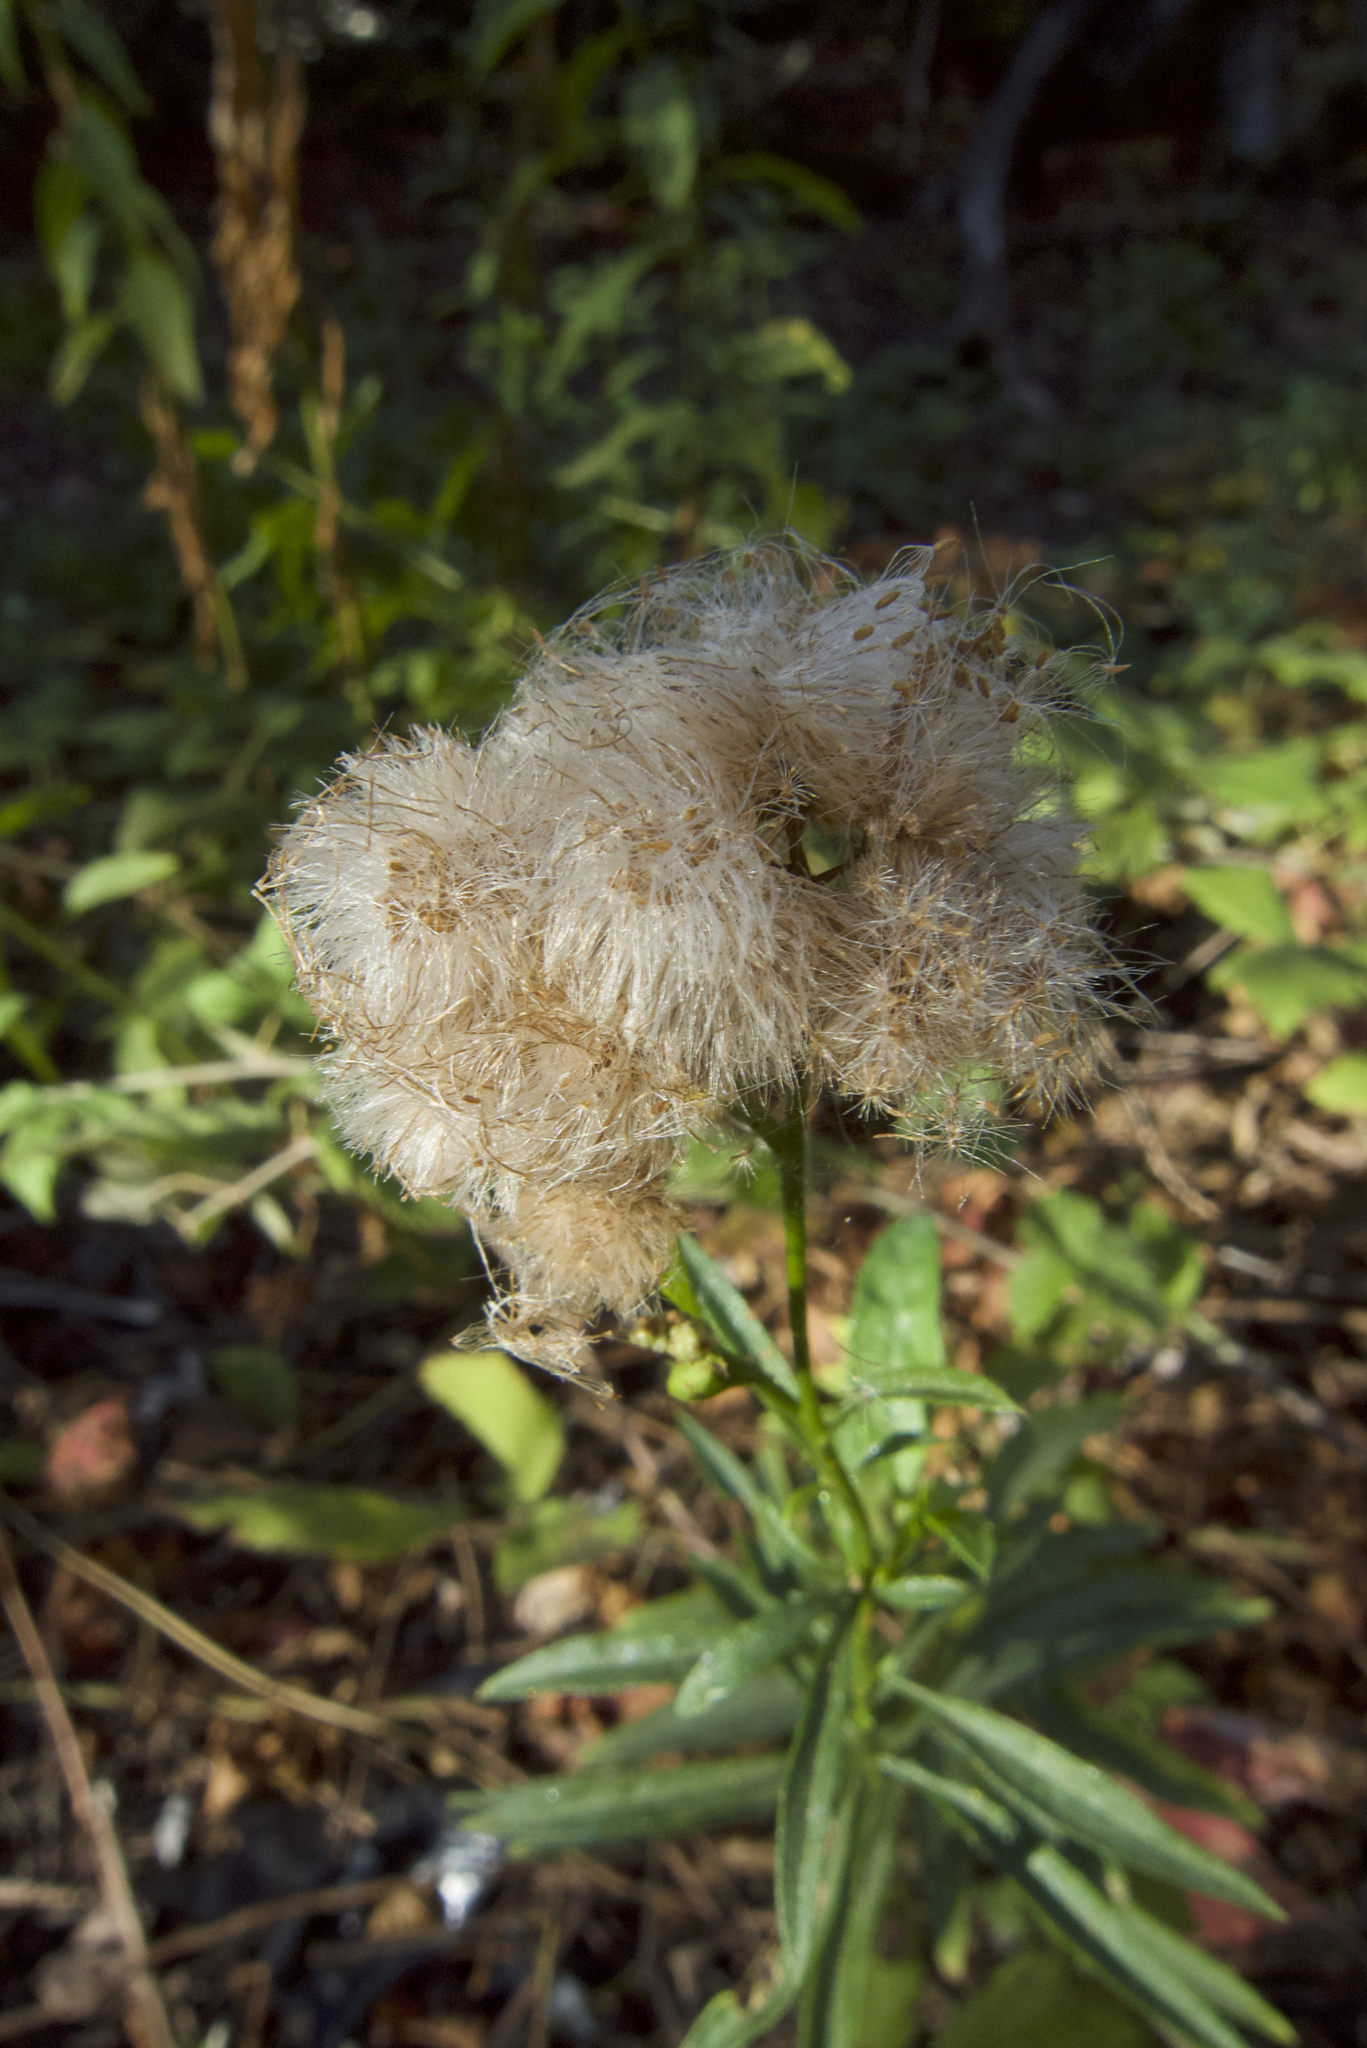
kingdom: Plantae
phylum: Tracheophyta
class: Magnoliopsida
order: Asterales
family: Asteraceae
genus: Baccharis
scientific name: Baccharis glutinosa
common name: Saltmarsh baccharis
